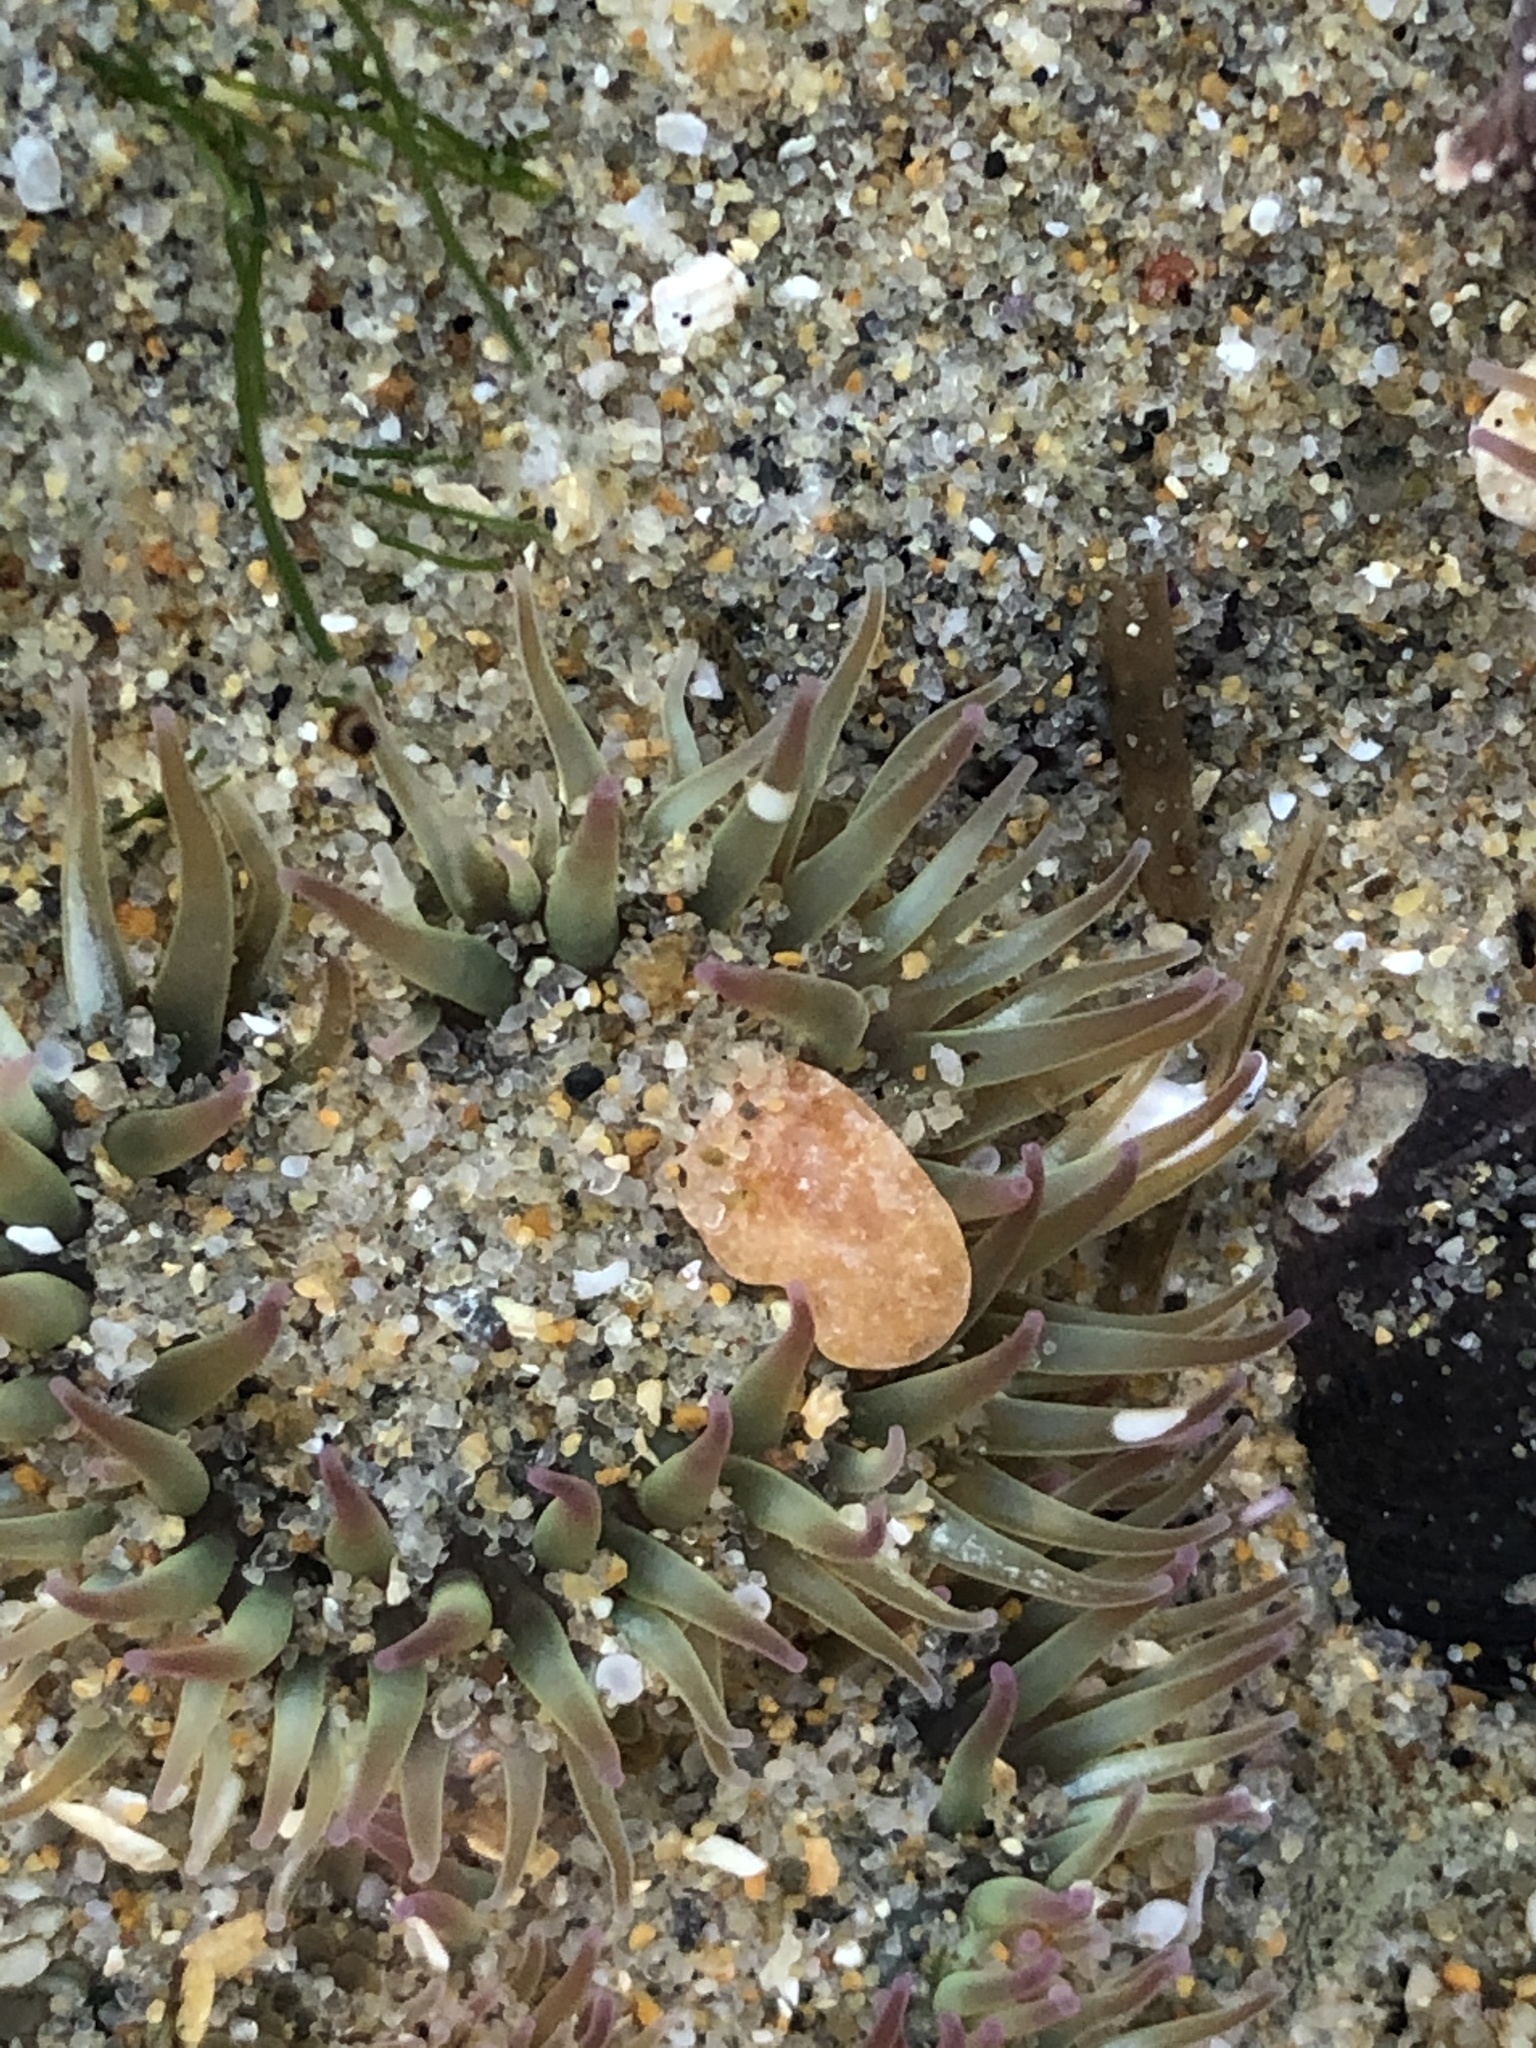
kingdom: Animalia
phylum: Cnidaria
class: Anthozoa
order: Actiniaria
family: Actiniidae
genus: Anthopleura
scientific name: Anthopleura elegantissima
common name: Clonal anemone
